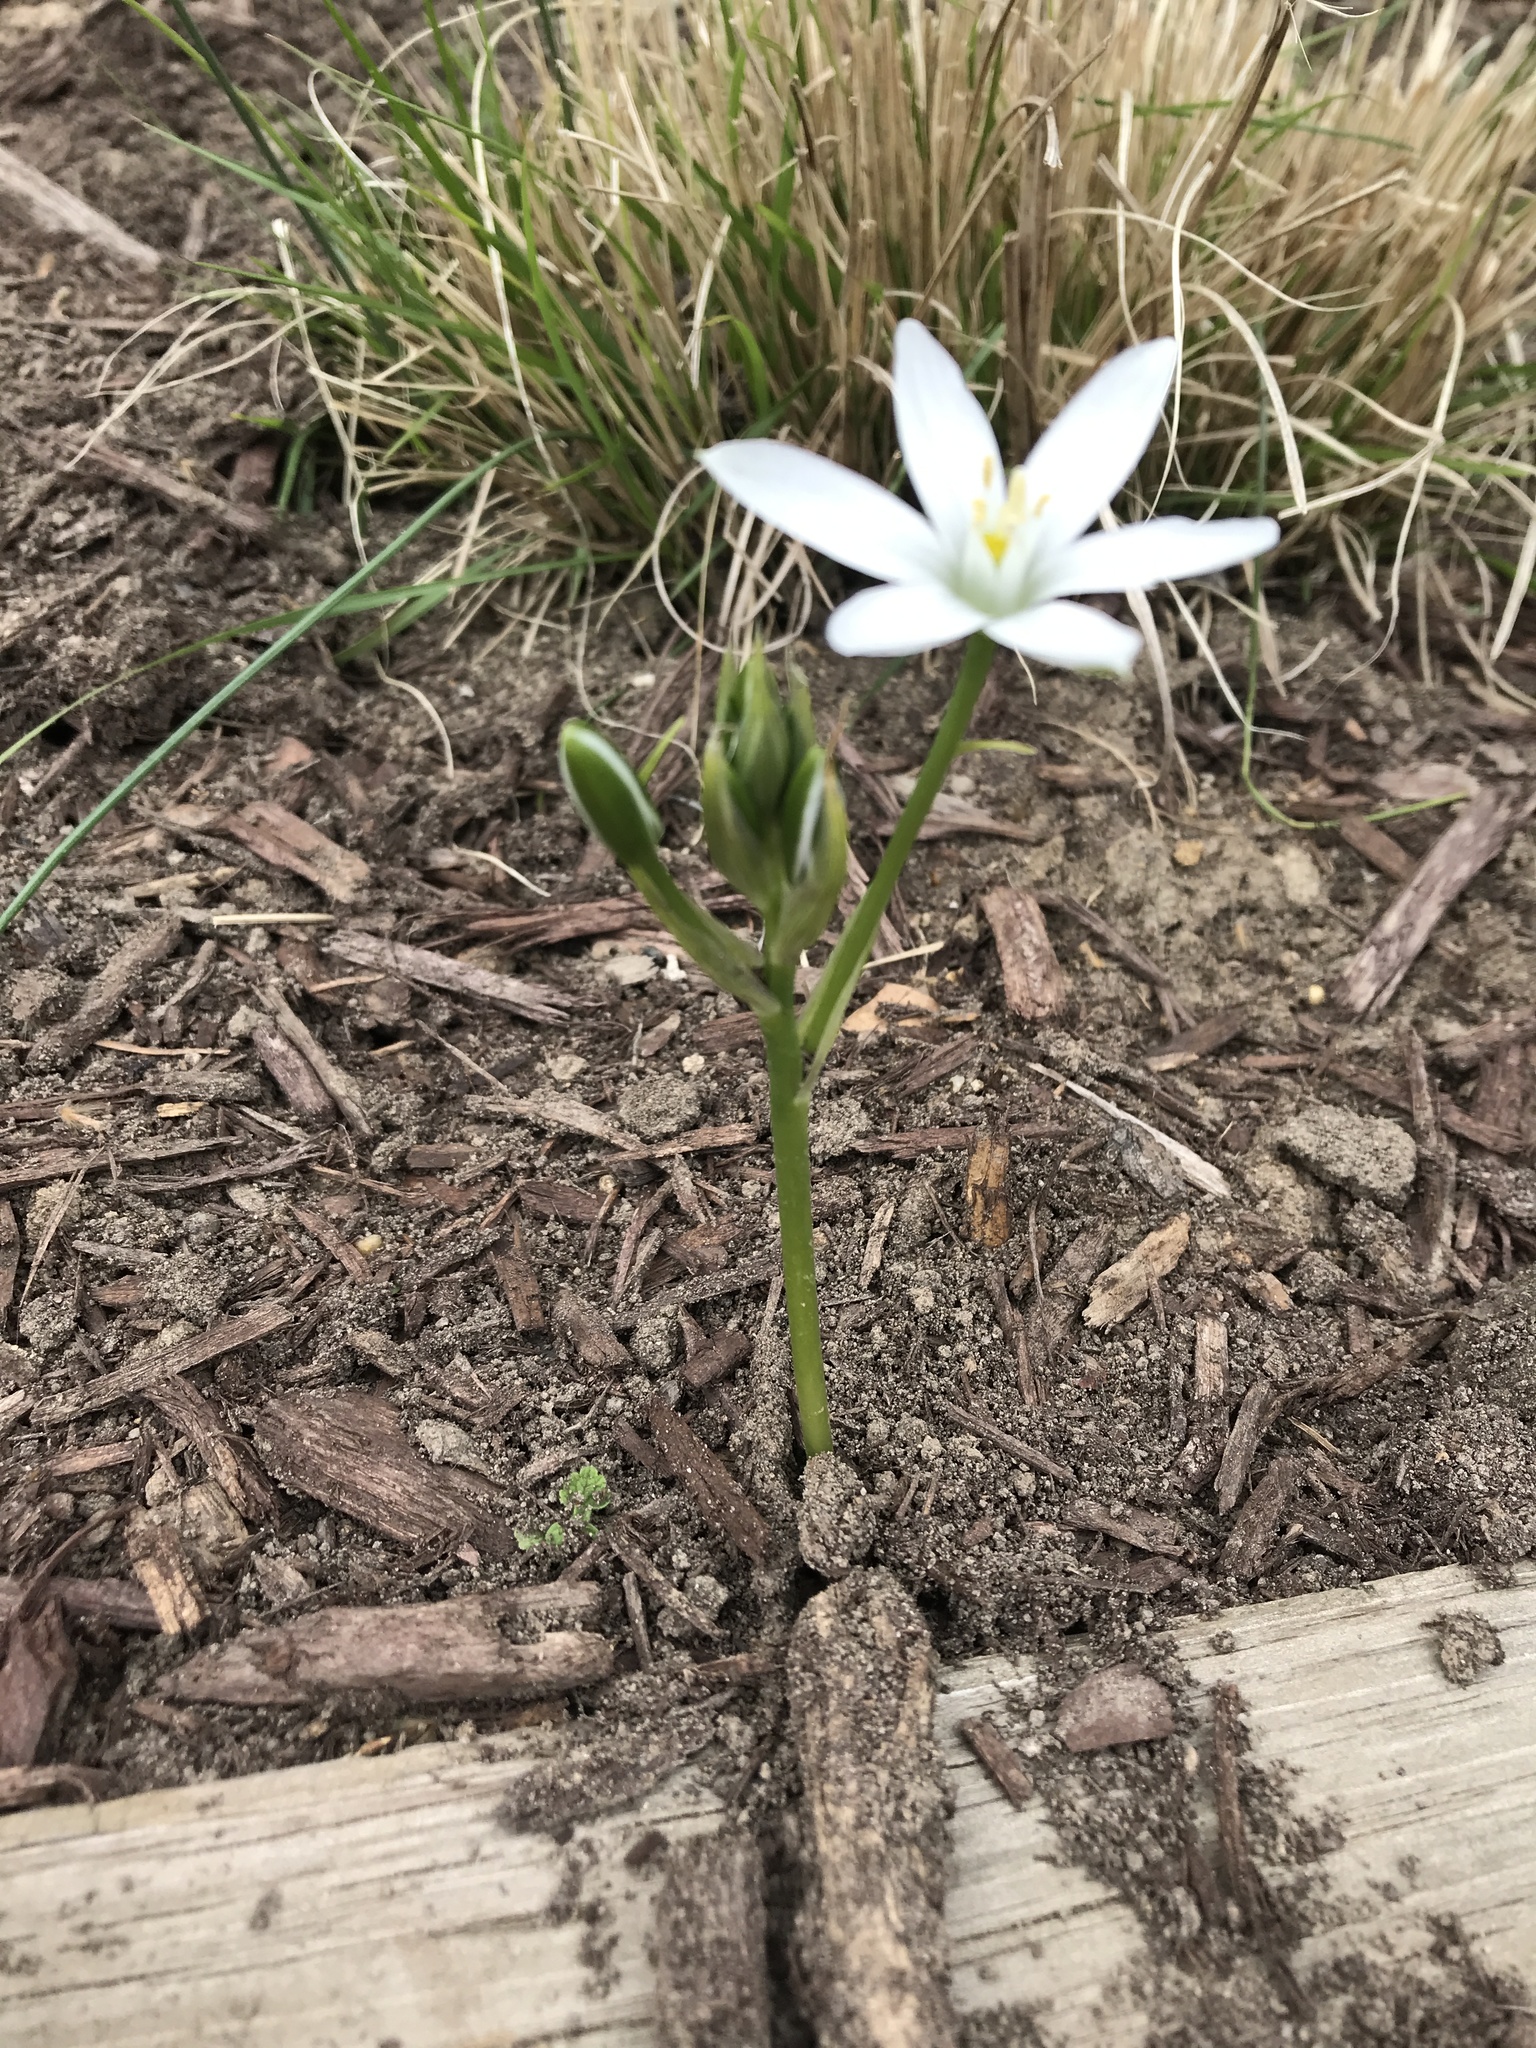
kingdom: Plantae
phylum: Tracheophyta
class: Liliopsida
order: Asparagales
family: Asparagaceae
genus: Ornithogalum
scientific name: Ornithogalum umbellatum
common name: Garden star-of-bethlehem
